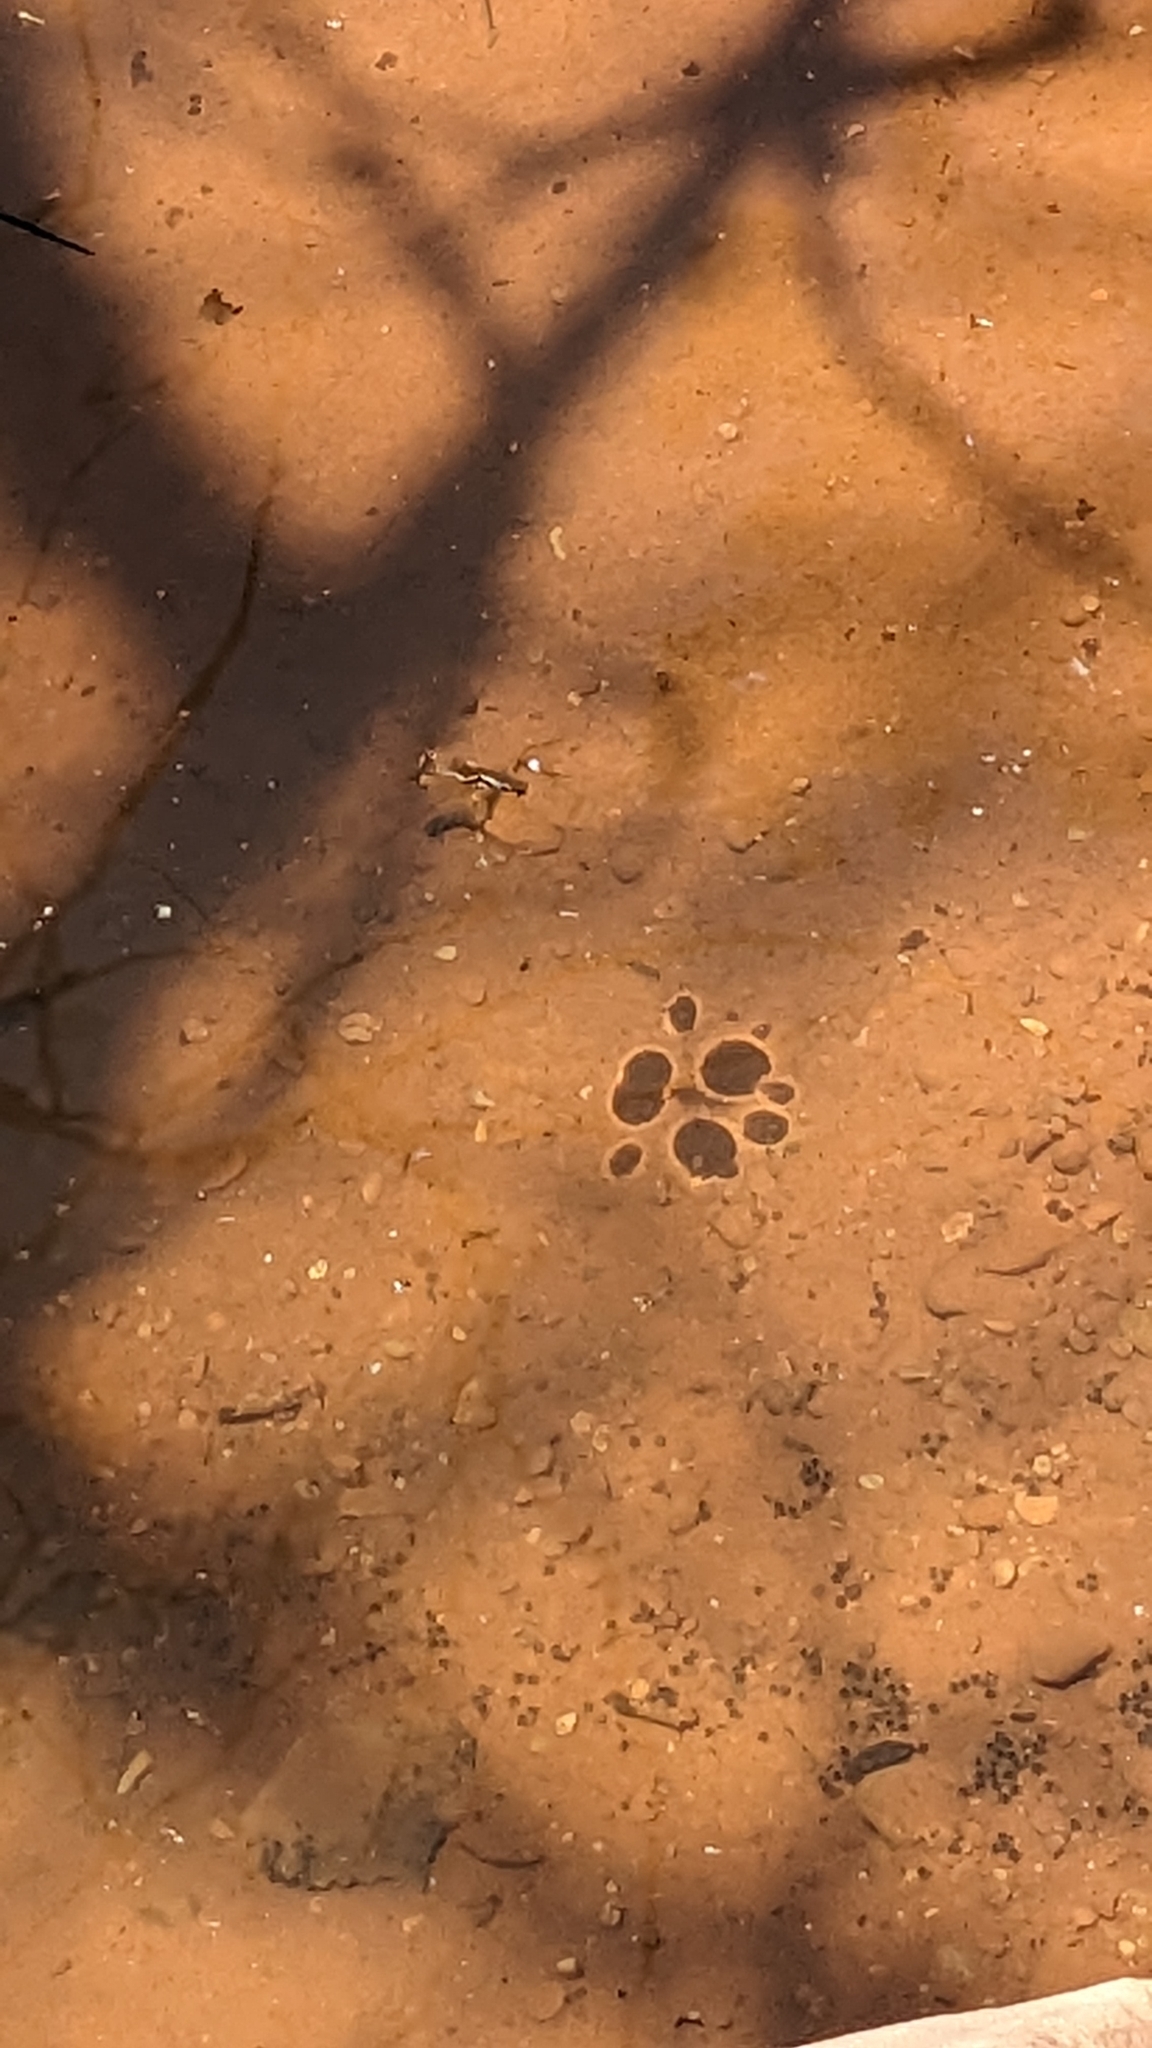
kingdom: Animalia
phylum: Arthropoda
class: Insecta
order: Hemiptera
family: Gerridae
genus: Aquarius
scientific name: Aquarius remigis
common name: Common water strider
